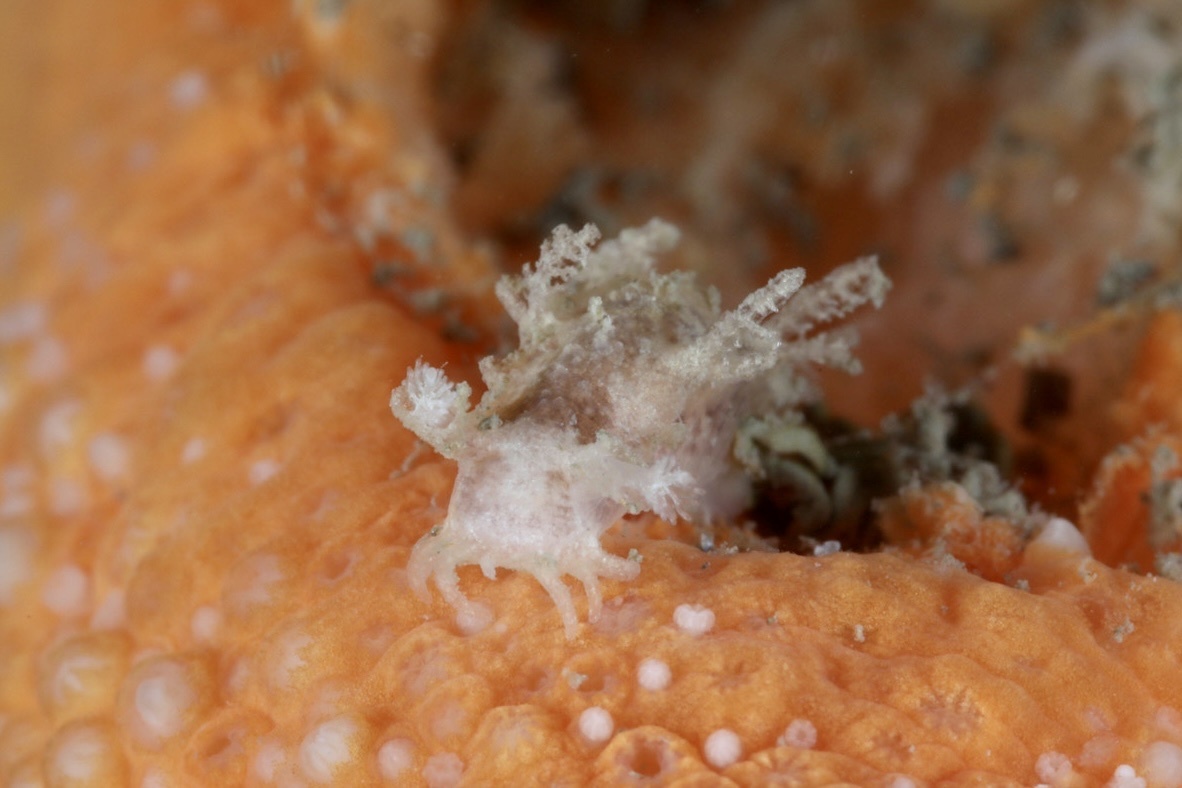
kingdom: Animalia
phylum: Mollusca
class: Gastropoda
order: Nudibranchia
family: Tritoniidae
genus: Duvaucelia
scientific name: Duvaucelia plebeia
